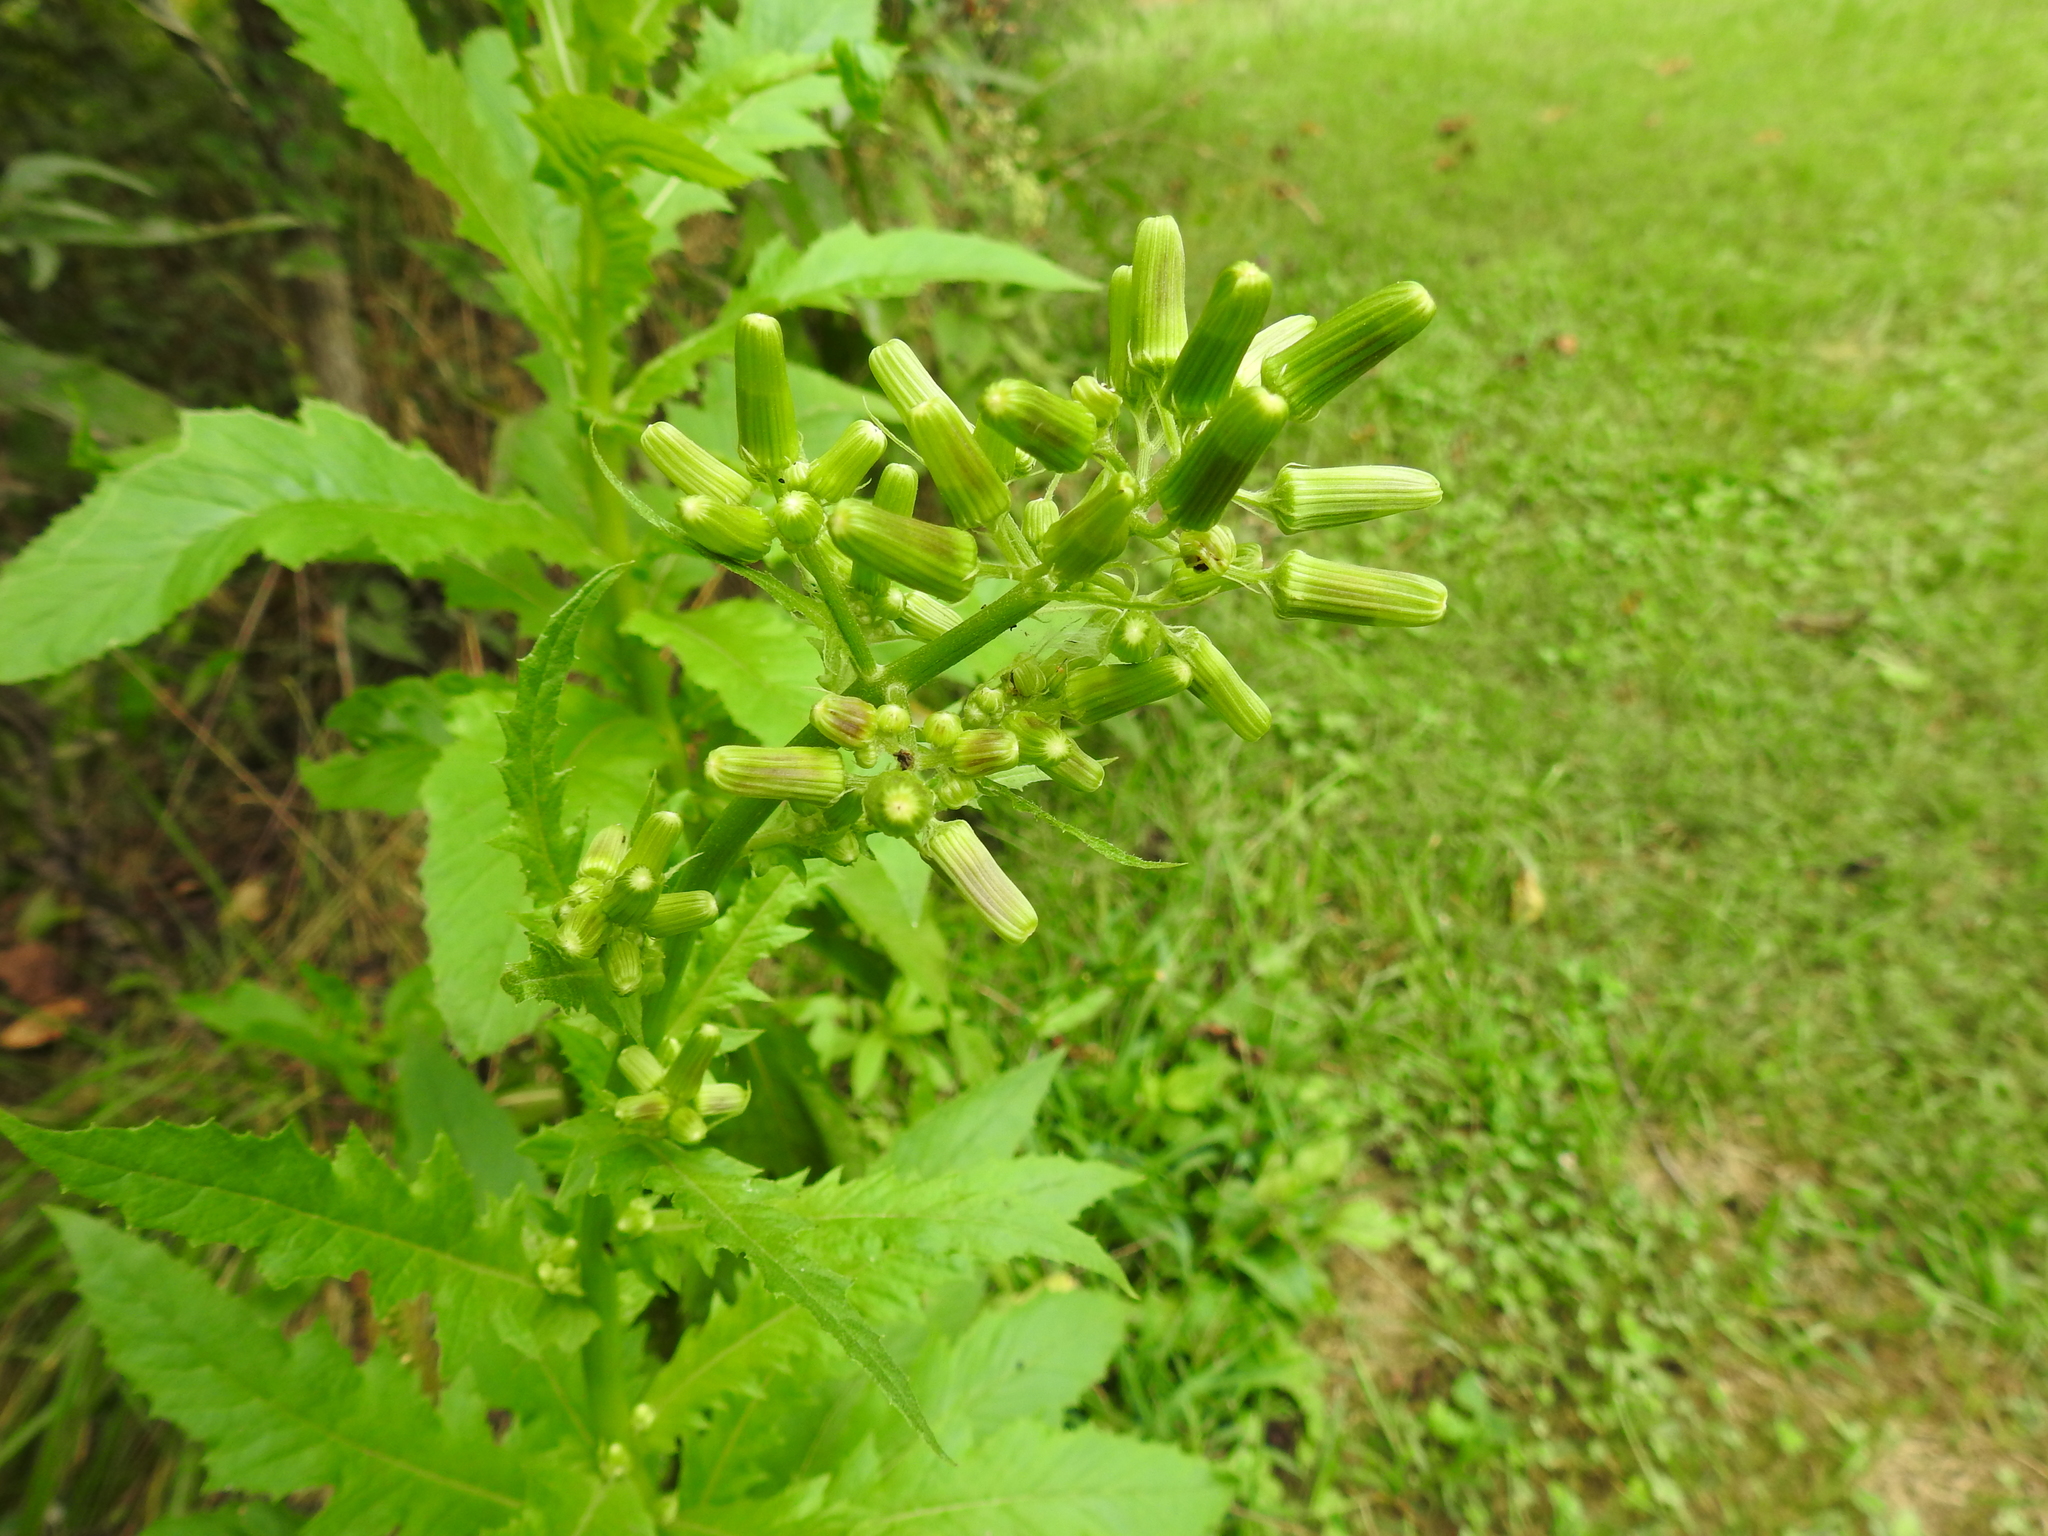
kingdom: Plantae
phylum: Tracheophyta
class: Magnoliopsida
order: Asterales
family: Asteraceae
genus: Erechtites
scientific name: Erechtites hieraciifolius
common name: American burnweed
